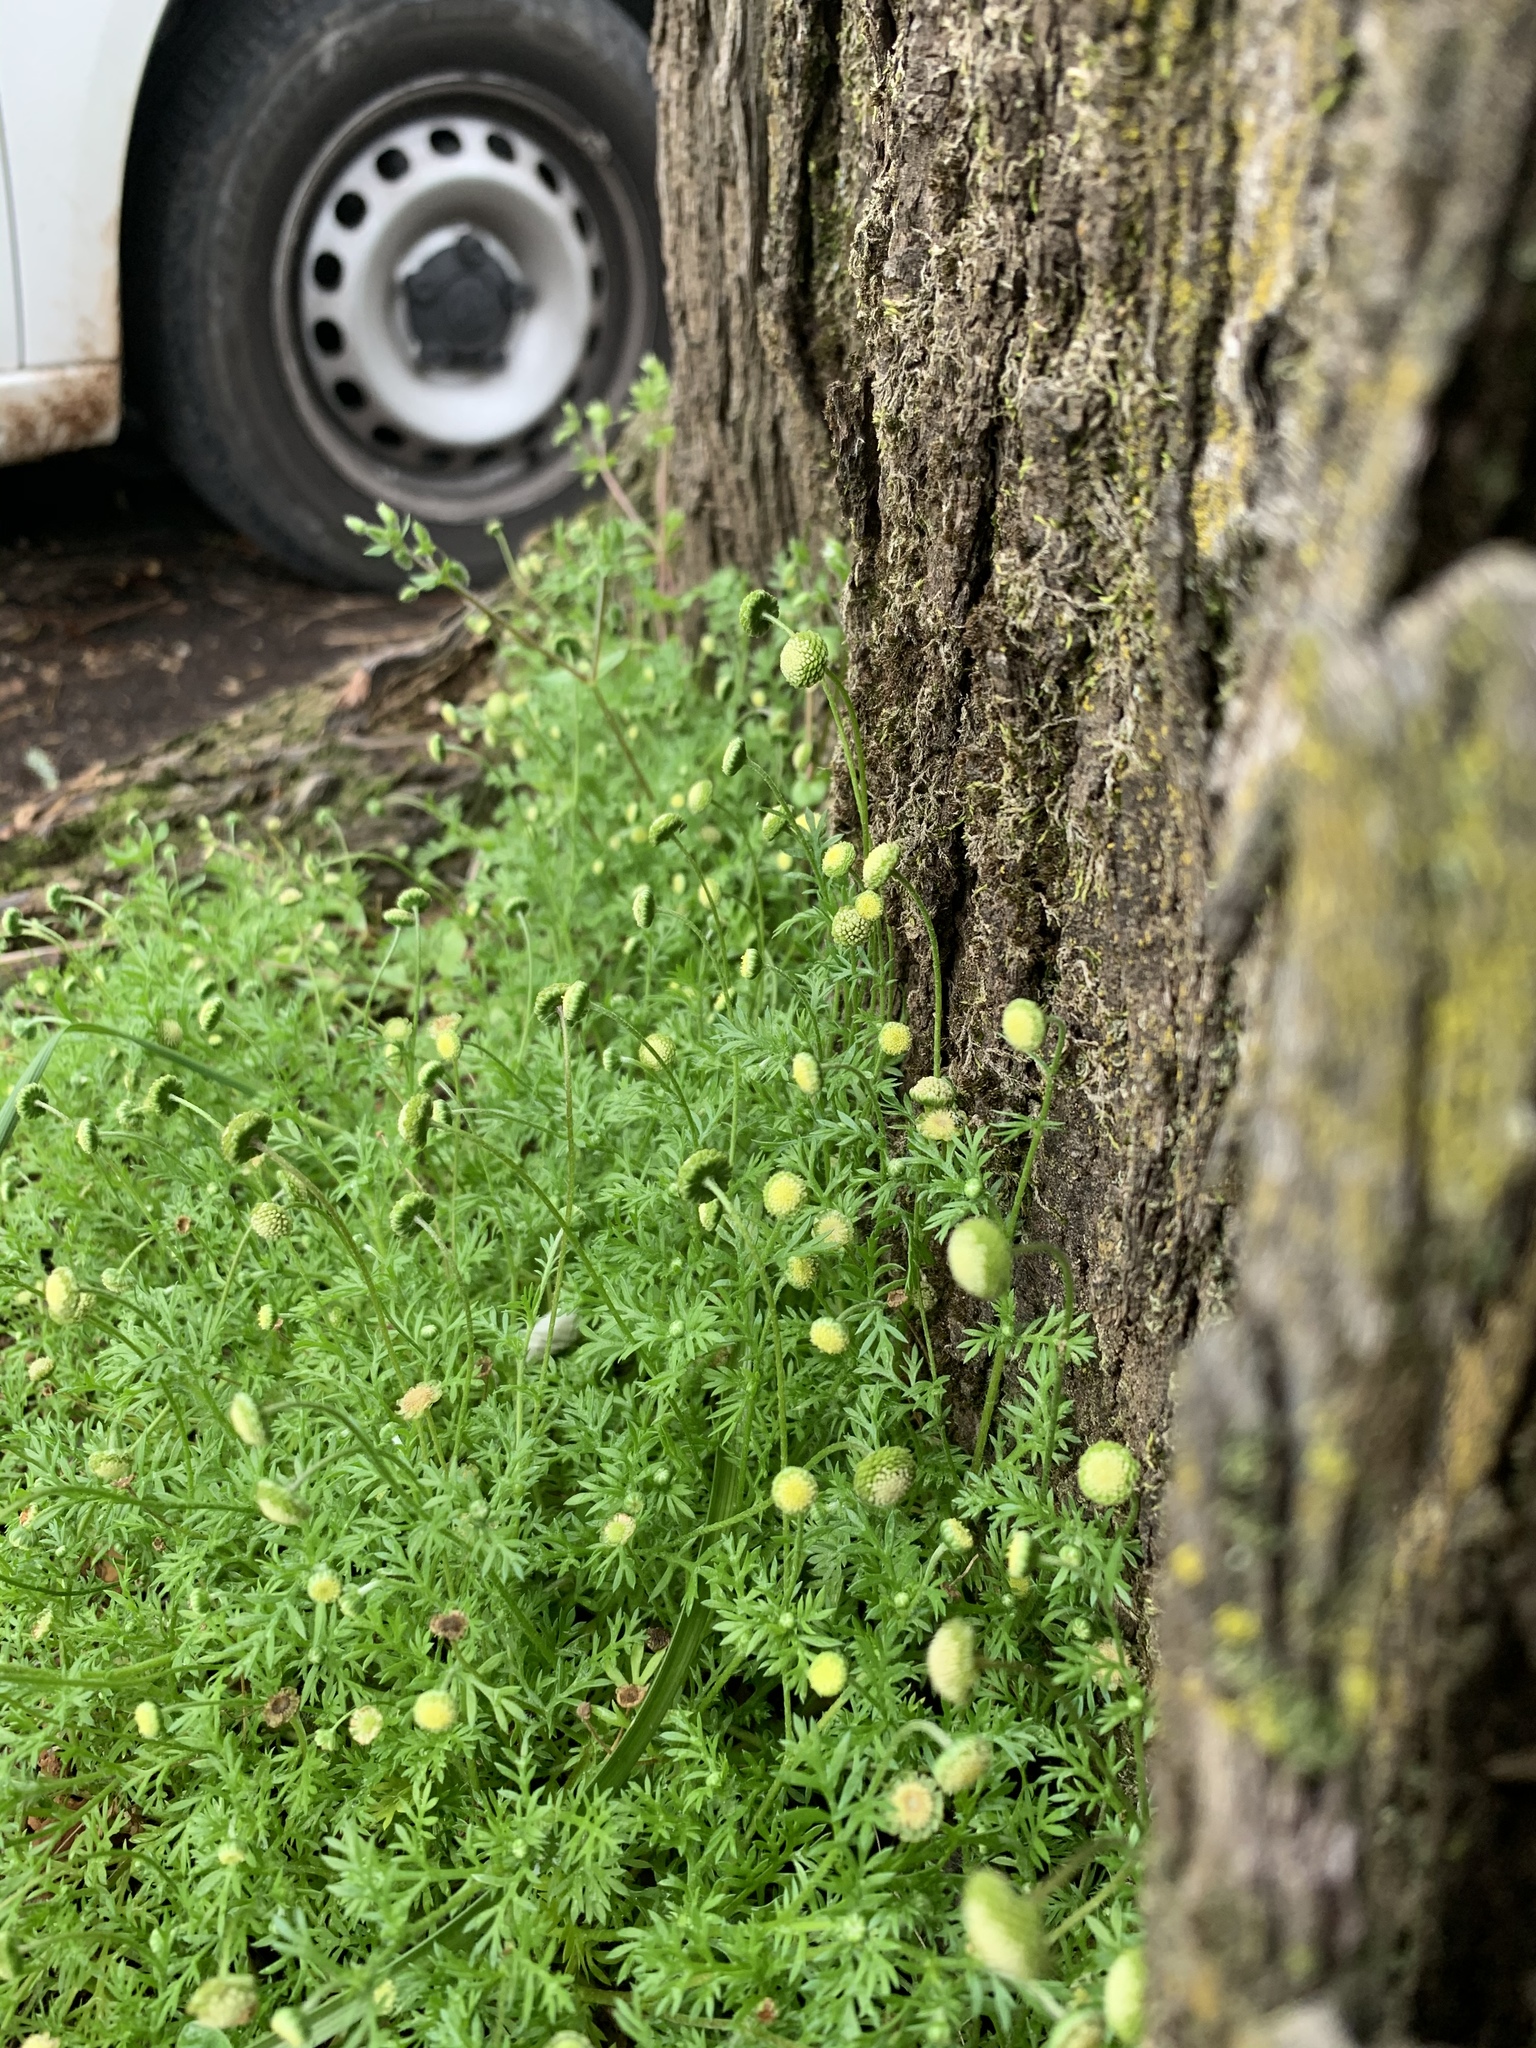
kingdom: Plantae
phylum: Tracheophyta
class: Magnoliopsida
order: Asterales
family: Asteraceae
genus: Cotula
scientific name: Cotula australis
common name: Australian waterbuttons
